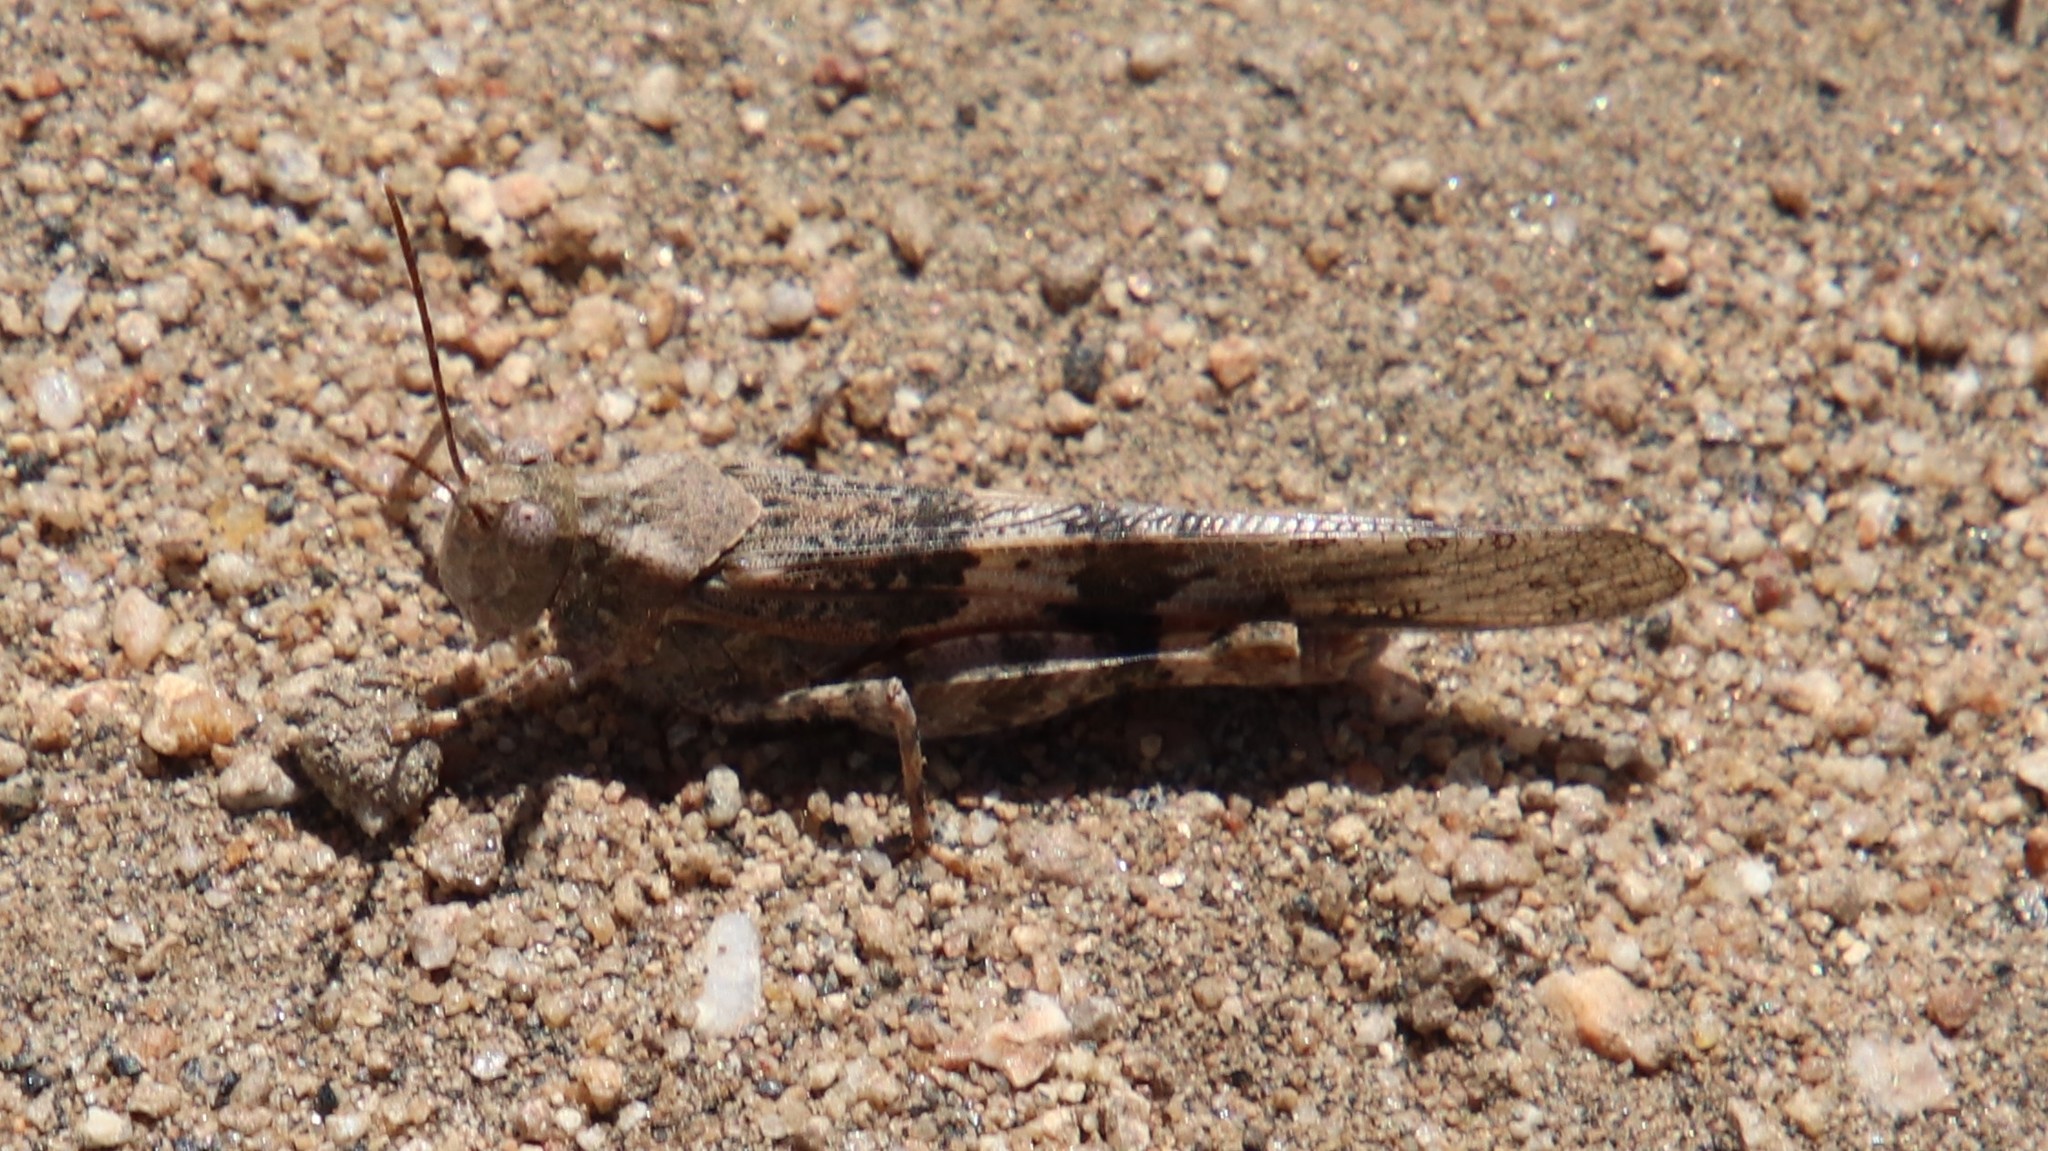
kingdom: Animalia
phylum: Arthropoda
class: Insecta
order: Orthoptera
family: Acrididae
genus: Trimerotropis
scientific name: Trimerotropis pallidipennis
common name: Pallid-winged grasshopper
